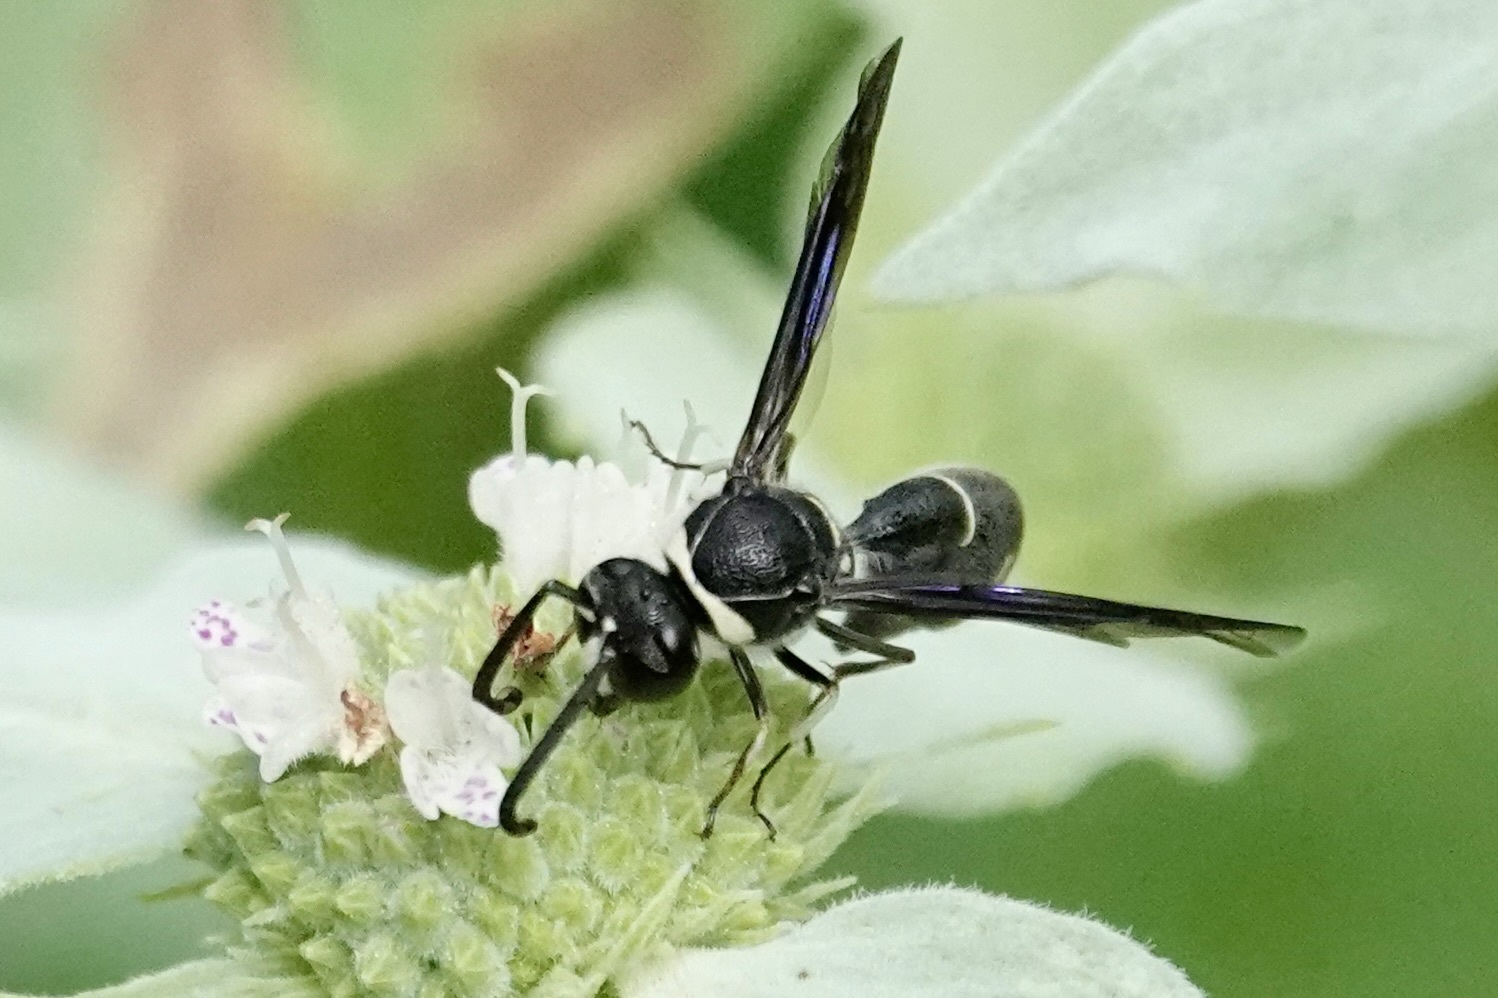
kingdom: Animalia
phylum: Arthropoda
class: Insecta
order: Hymenoptera
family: Vespidae
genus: Eumenes
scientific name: Eumenes fraternus
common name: Fraternal potter wasp
